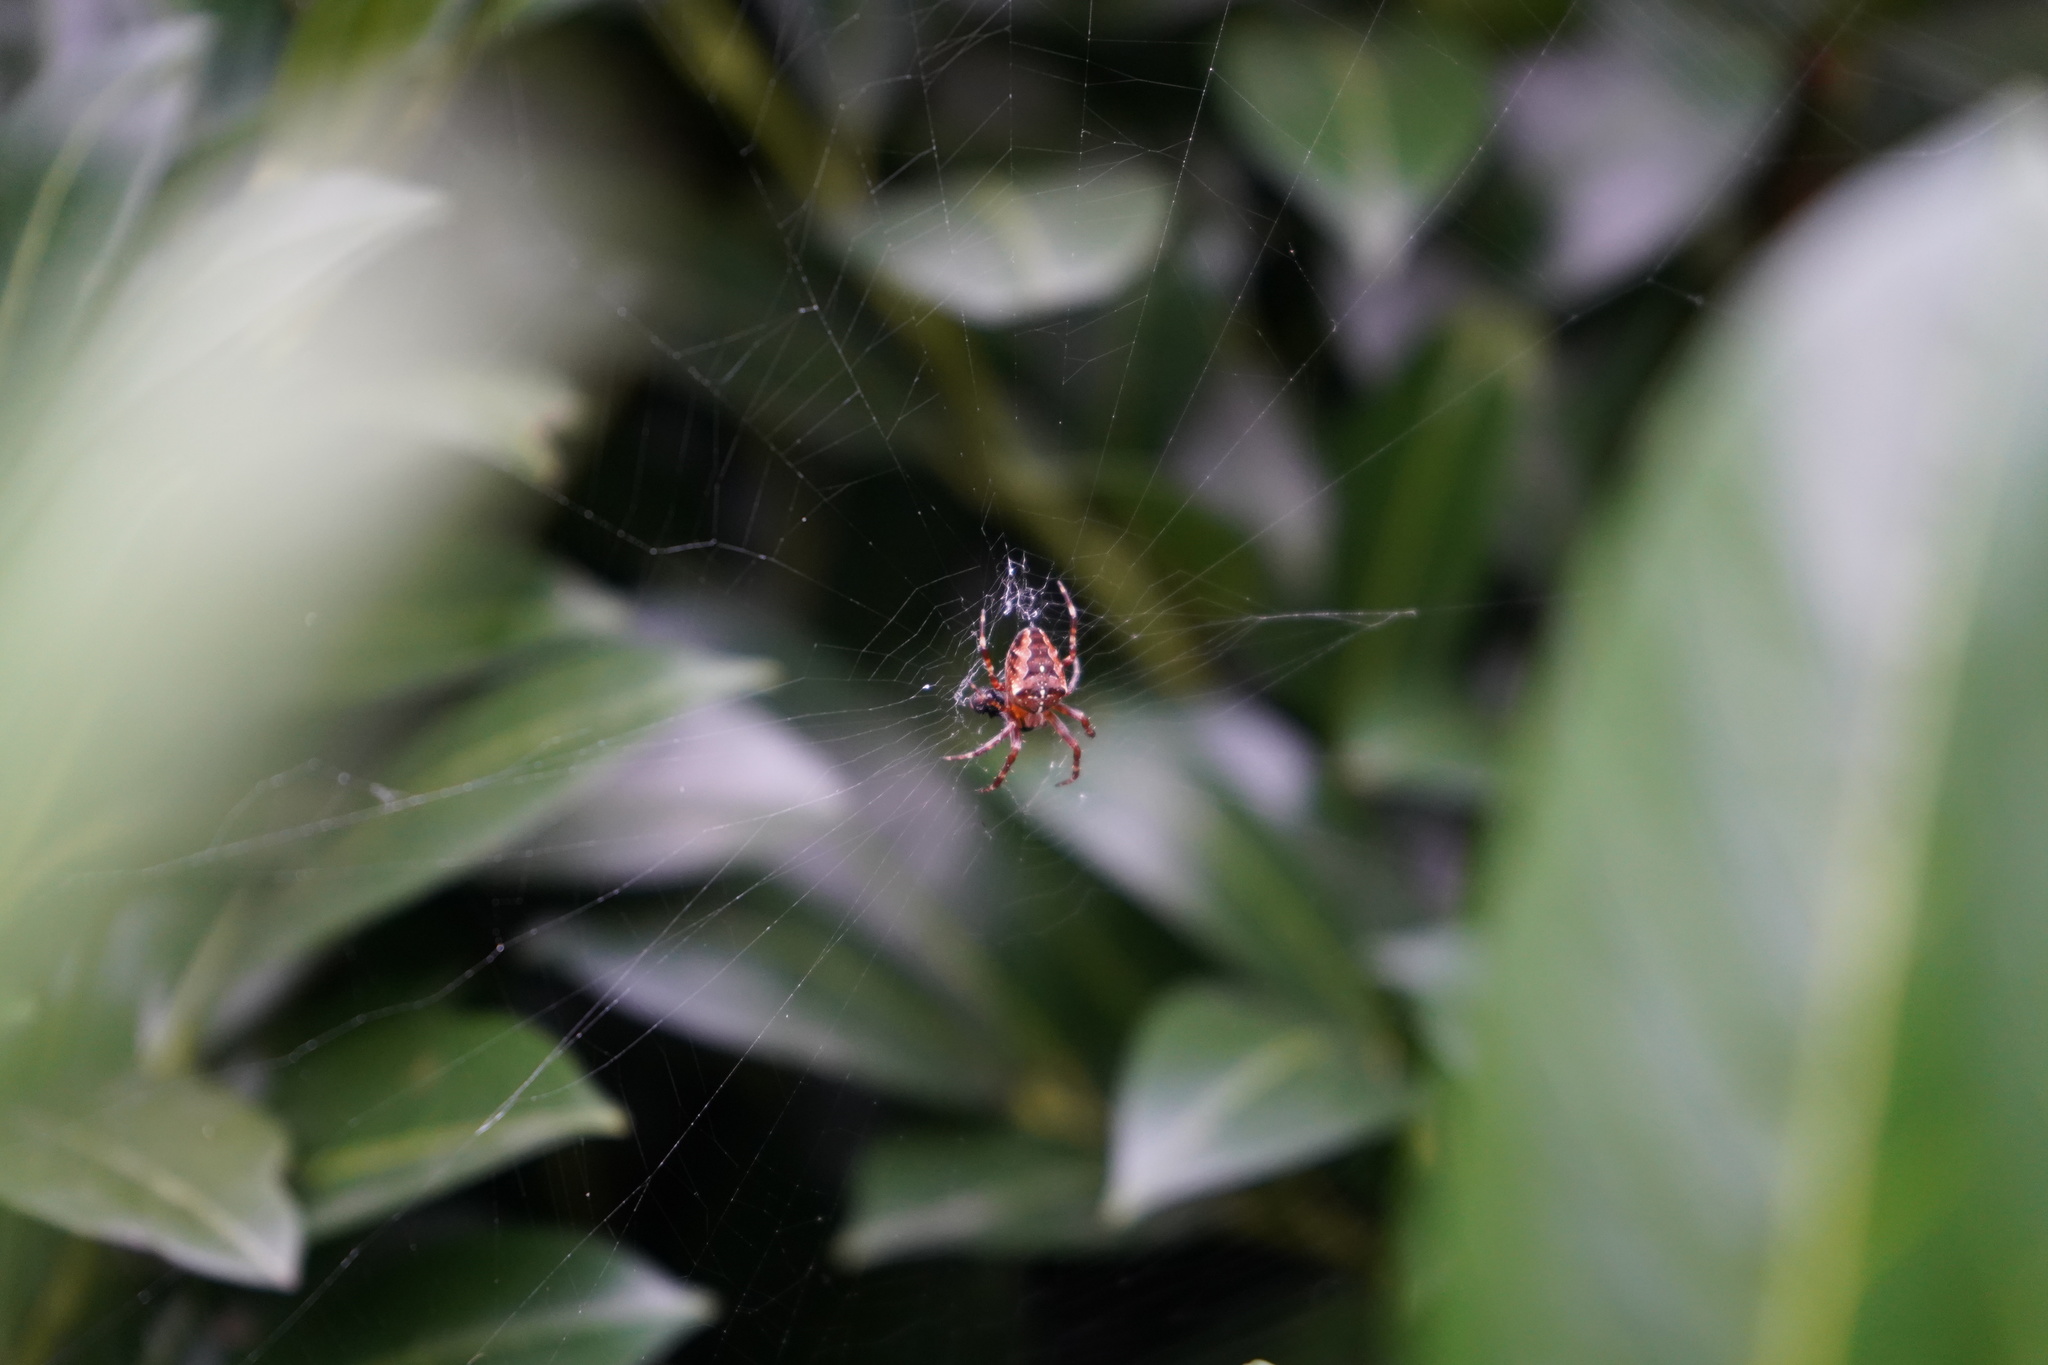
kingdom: Animalia
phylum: Arthropoda
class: Arachnida
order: Araneae
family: Araneidae
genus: Araneus
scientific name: Araneus diadematus
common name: Cross orbweaver
